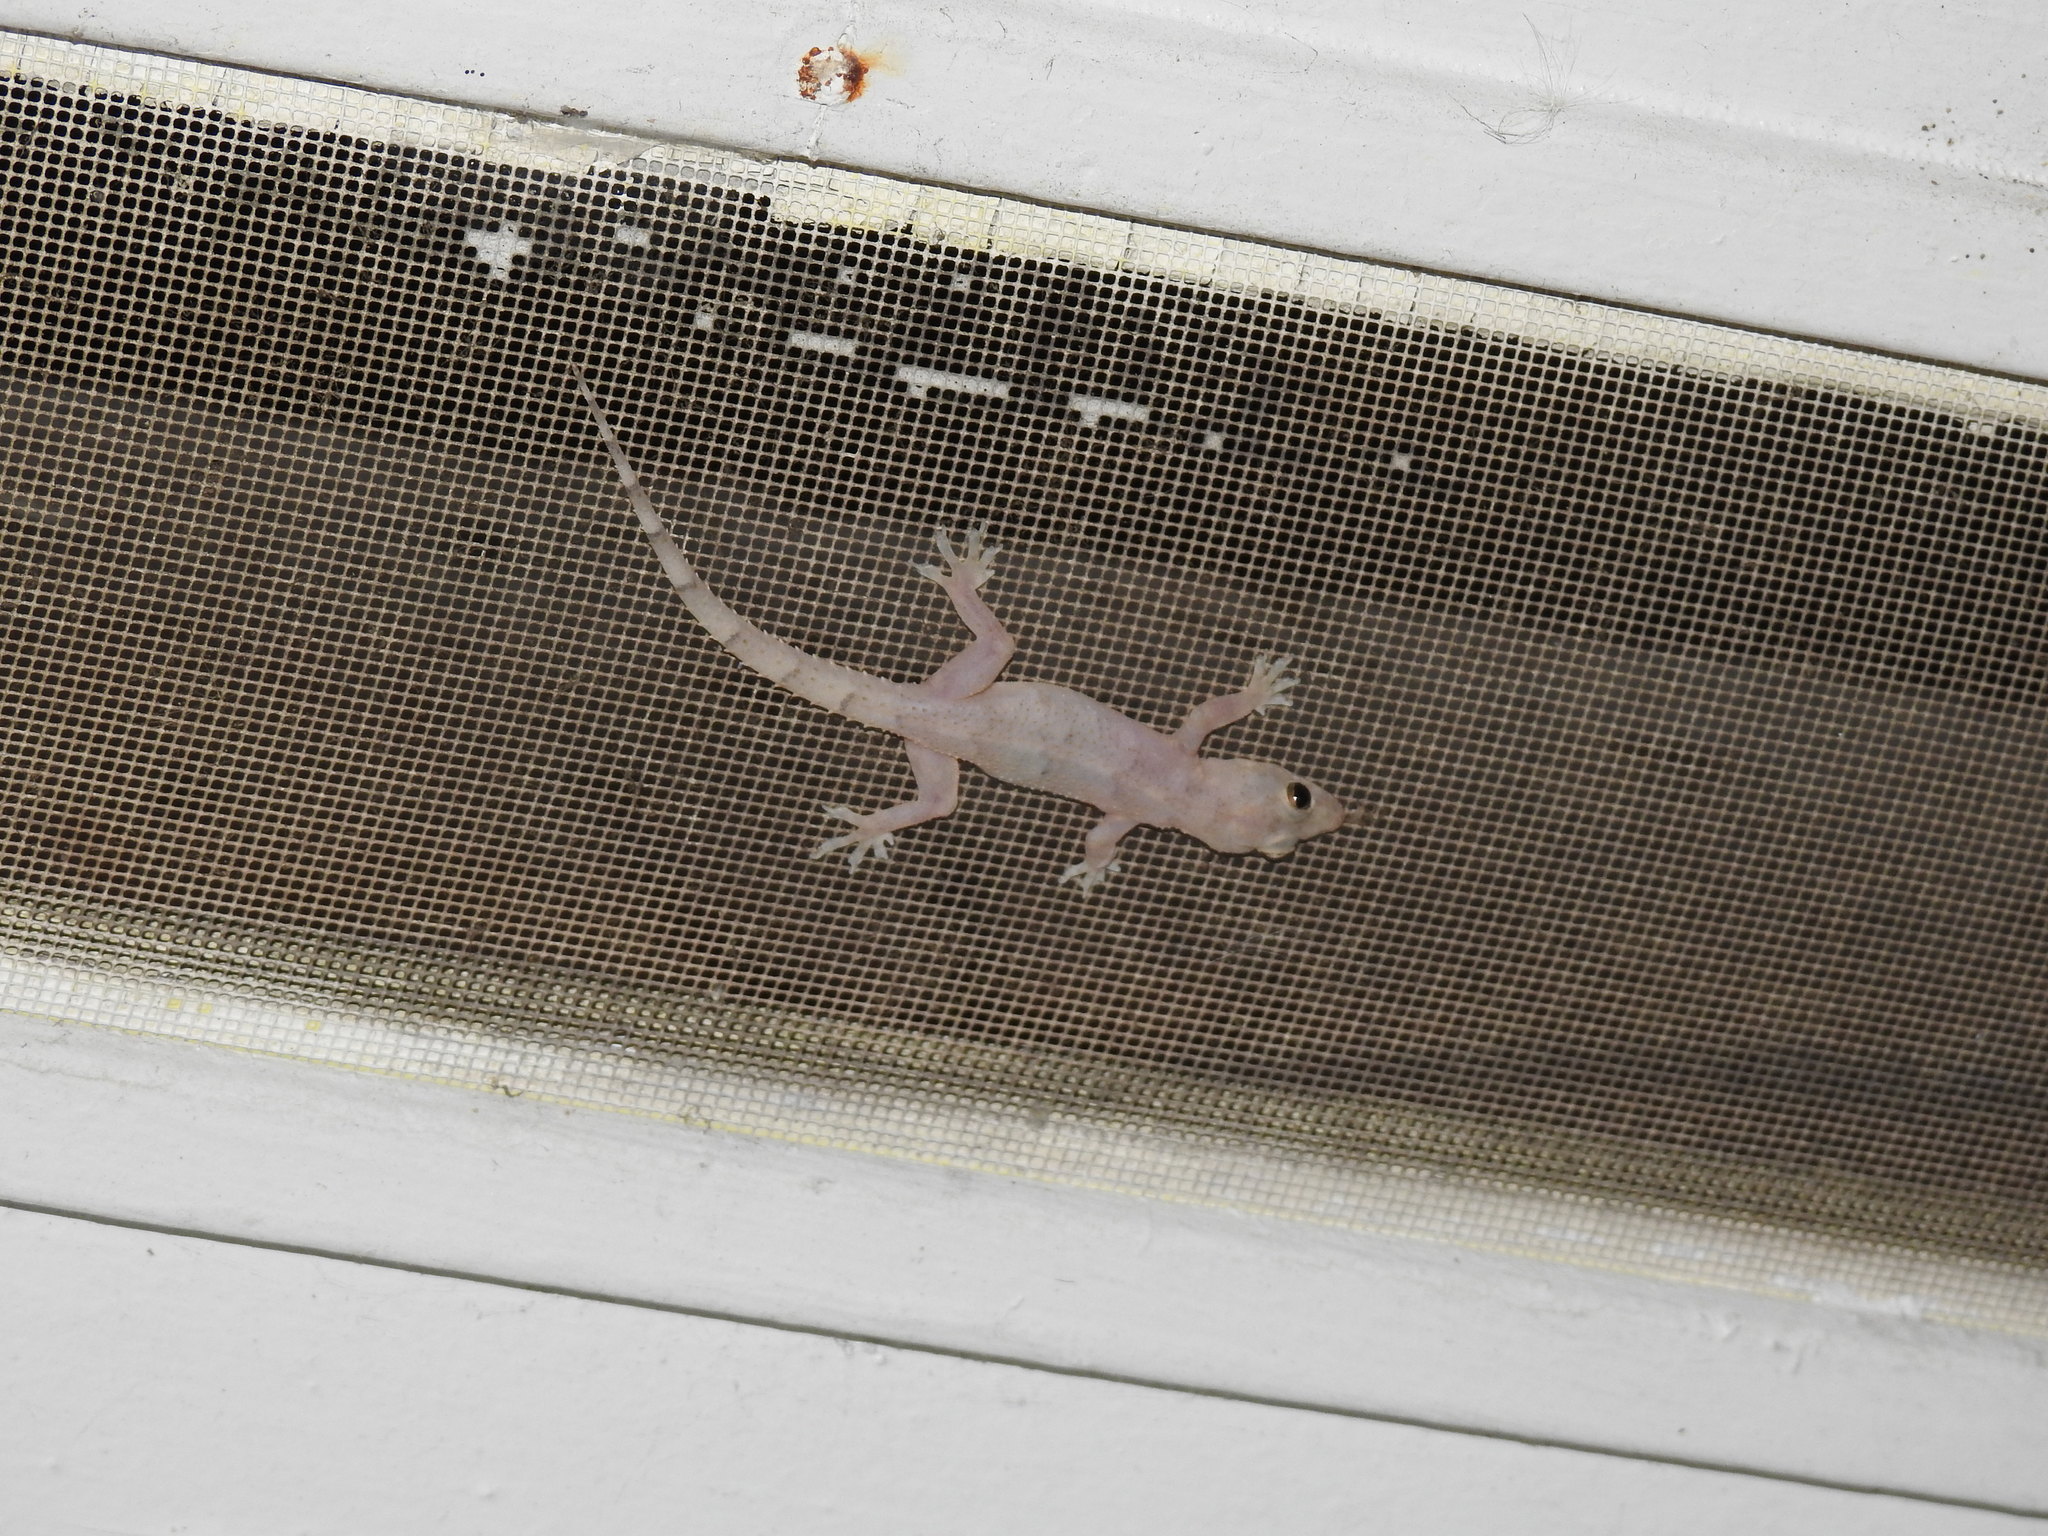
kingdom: Animalia
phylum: Chordata
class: Squamata
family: Gekkonidae
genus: Hemidactylus
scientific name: Hemidactylus mabouia
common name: House gecko
